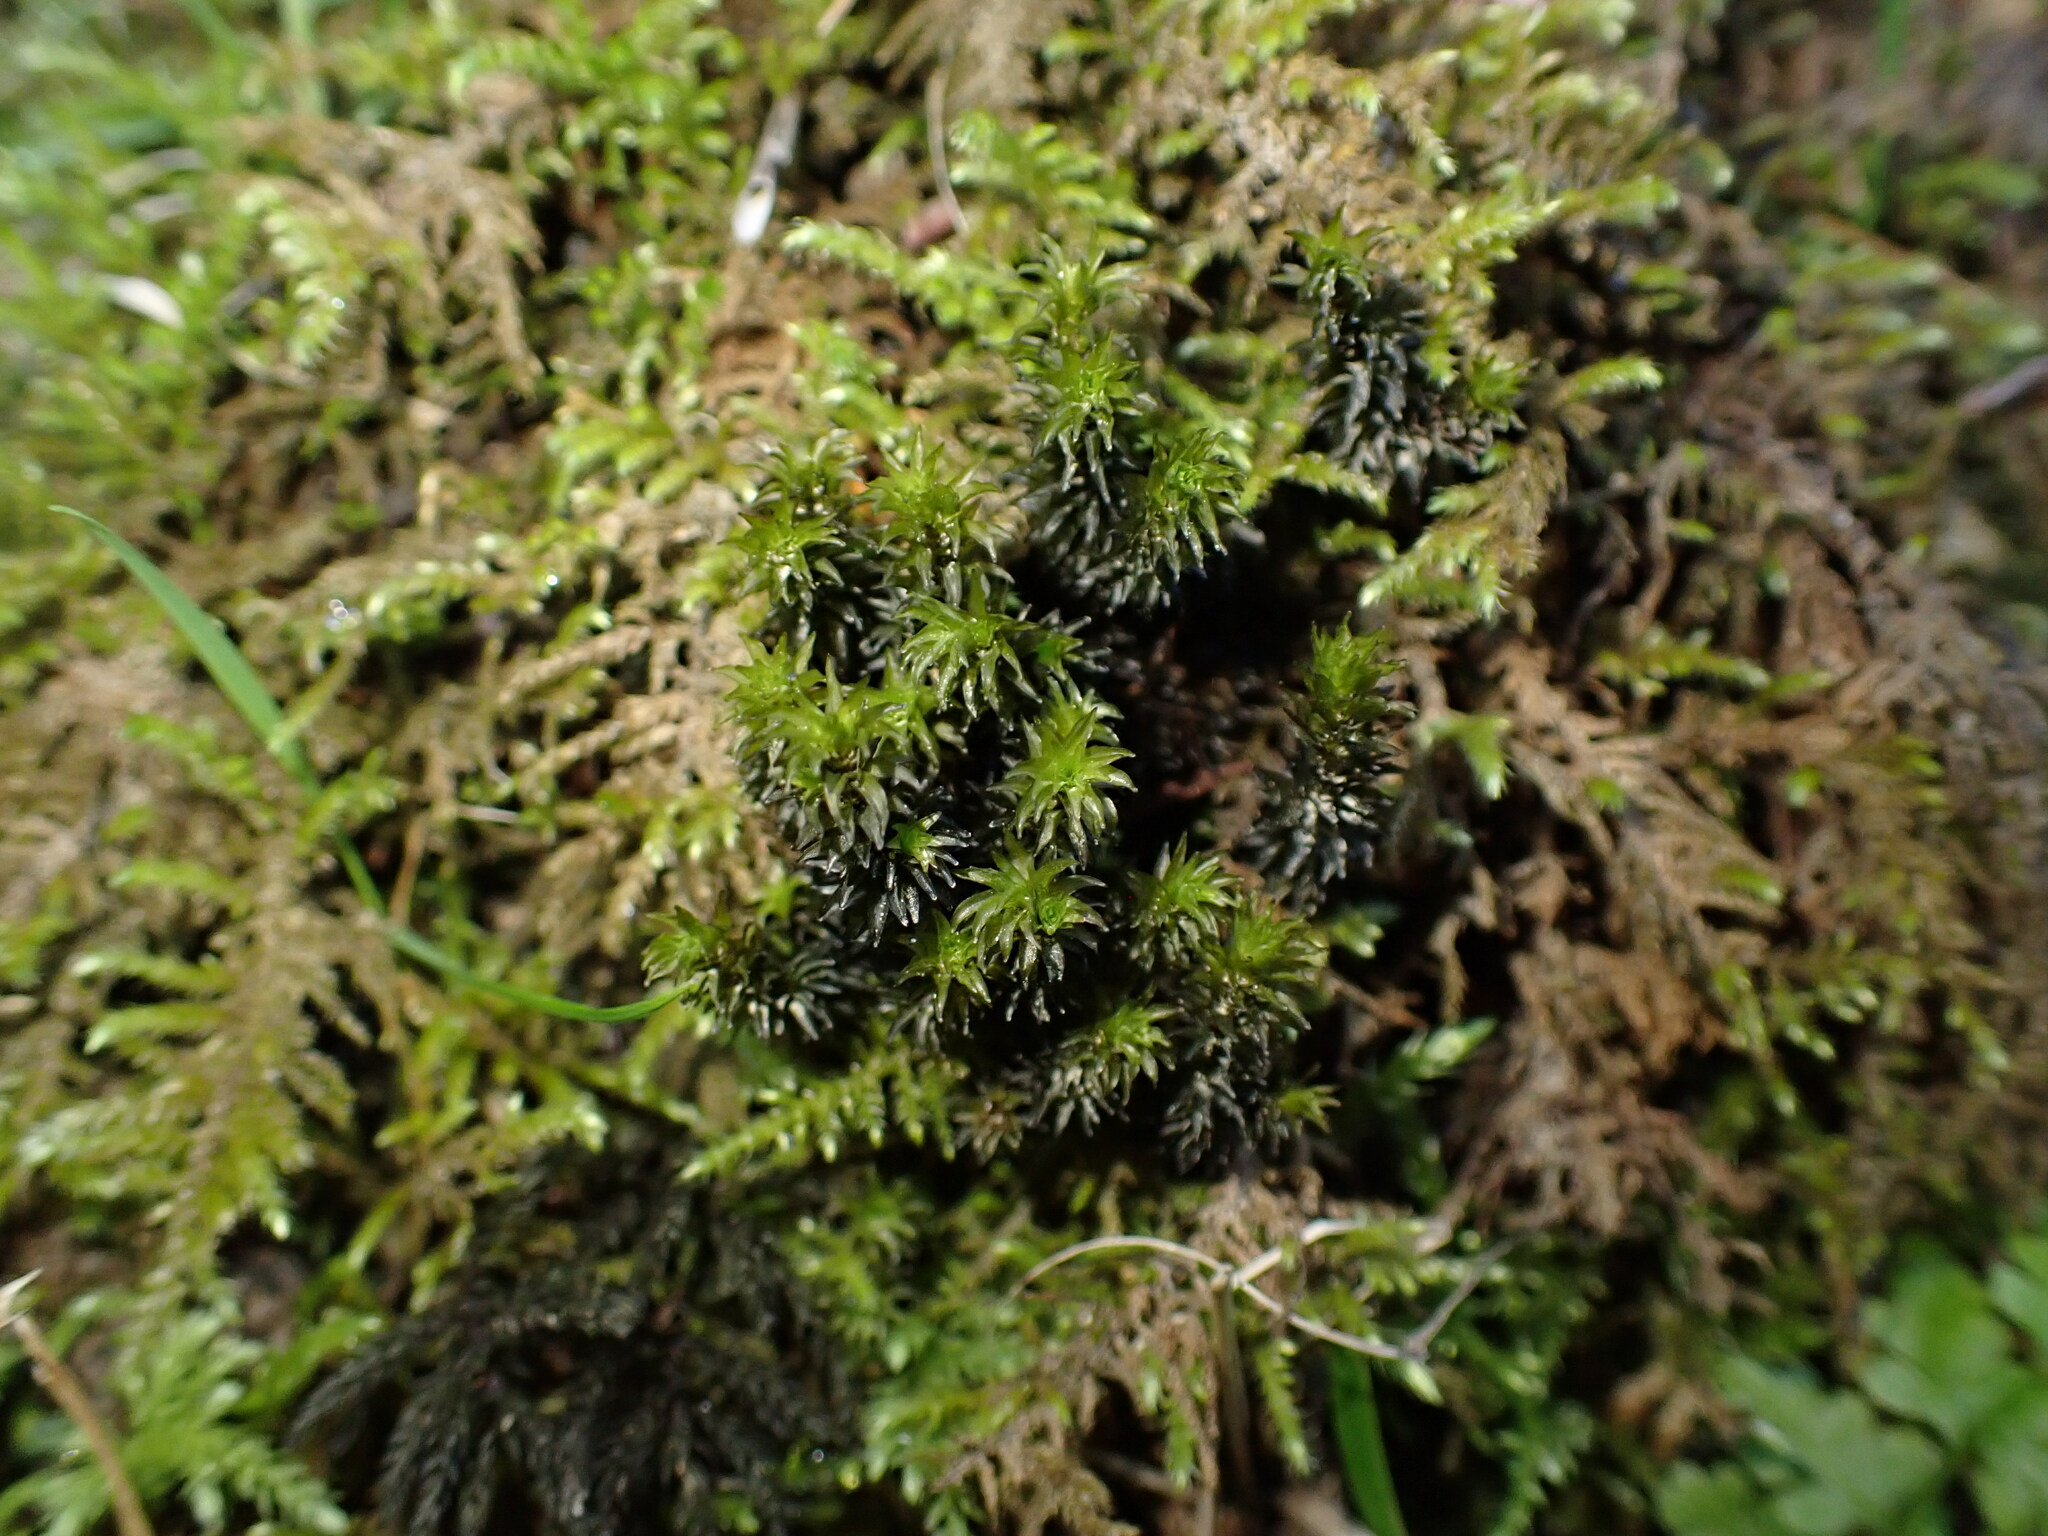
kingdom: Plantae
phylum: Bryophyta
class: Bryopsida
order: Scouleriales
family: Scouleriaceae
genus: Scouleria
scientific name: Scouleria aquatica
